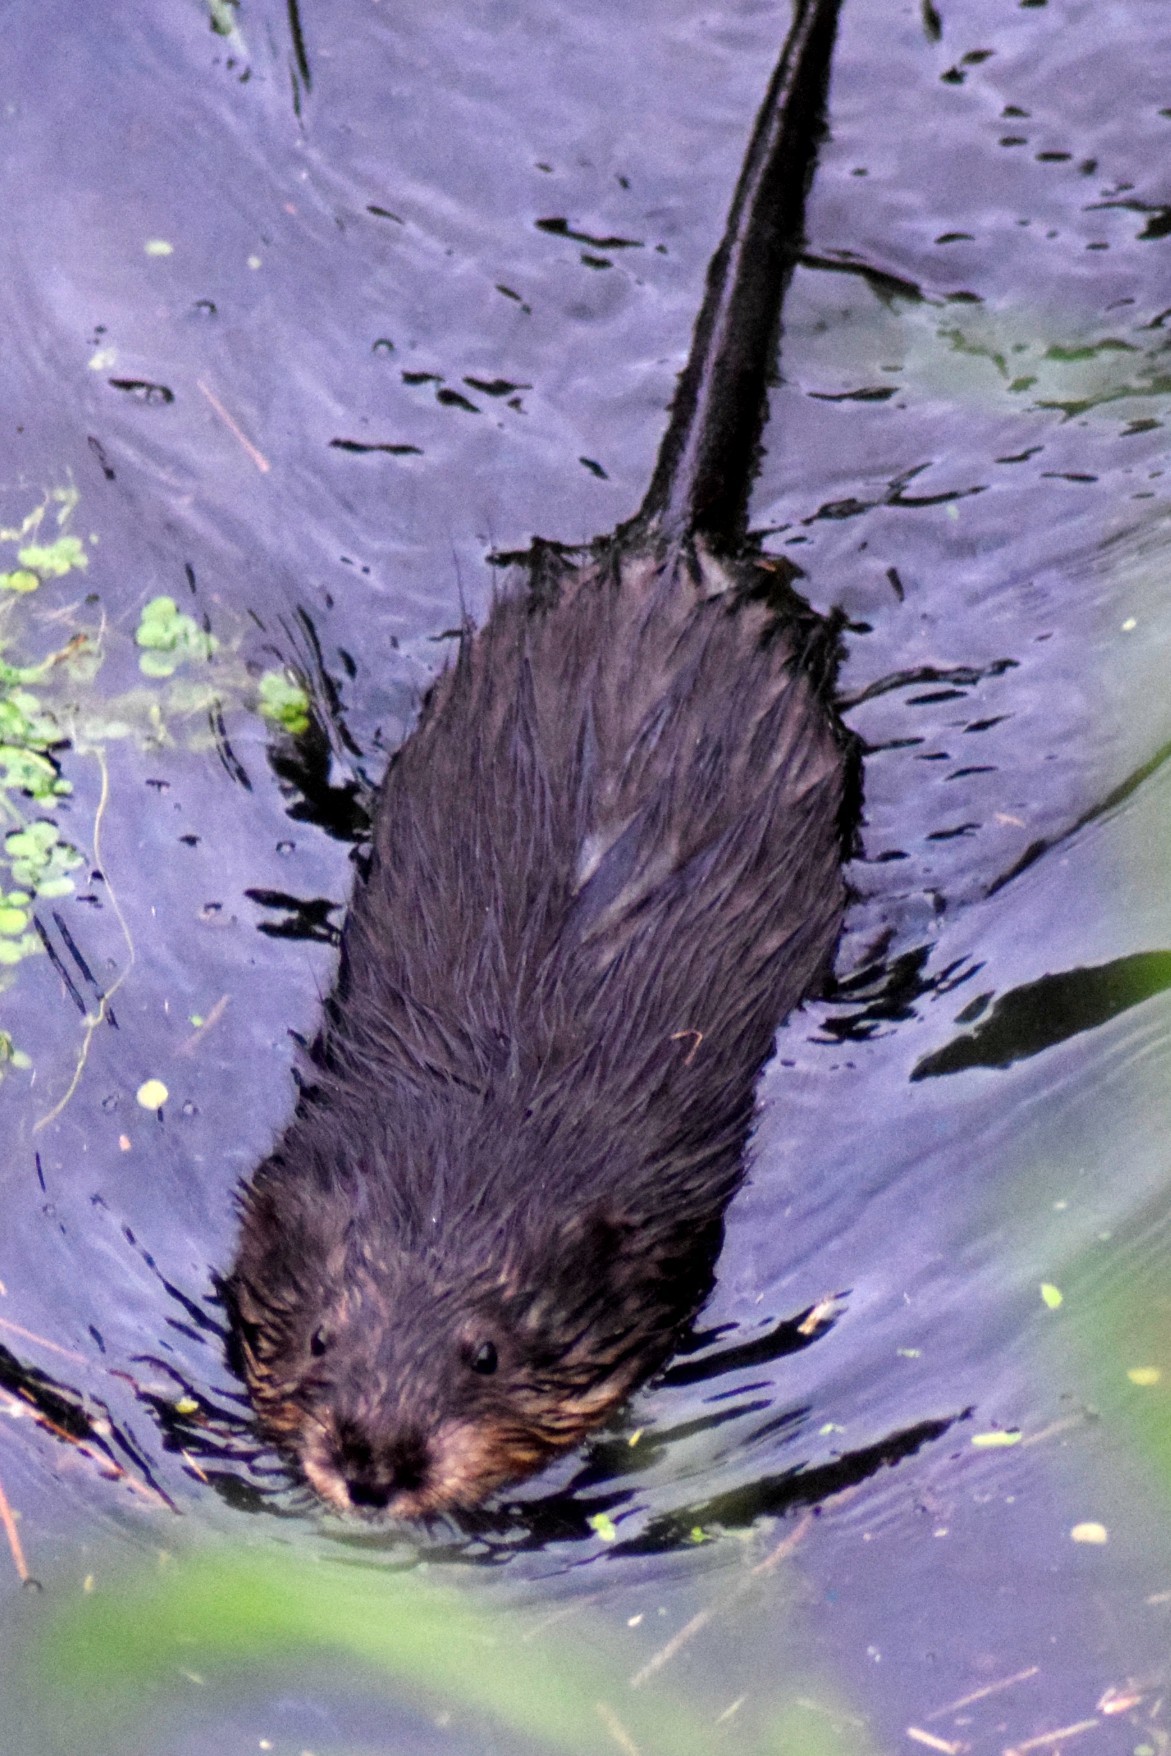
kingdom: Animalia
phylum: Chordata
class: Mammalia
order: Rodentia
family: Cricetidae
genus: Ondatra
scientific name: Ondatra zibethicus
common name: Muskrat
